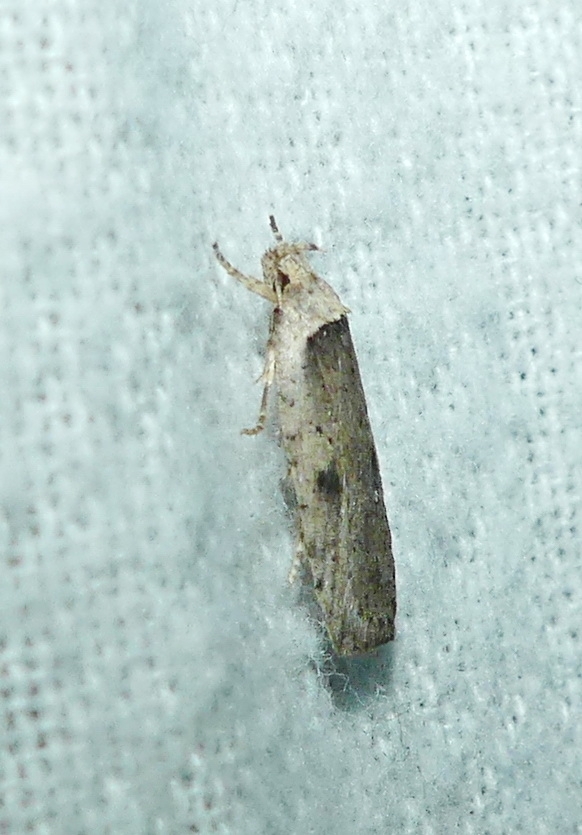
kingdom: Animalia
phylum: Arthropoda
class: Insecta
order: Lepidoptera
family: Depressariidae
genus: Agonopterix
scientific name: Agonopterix canadensis
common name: Canadian agonopterix moth
